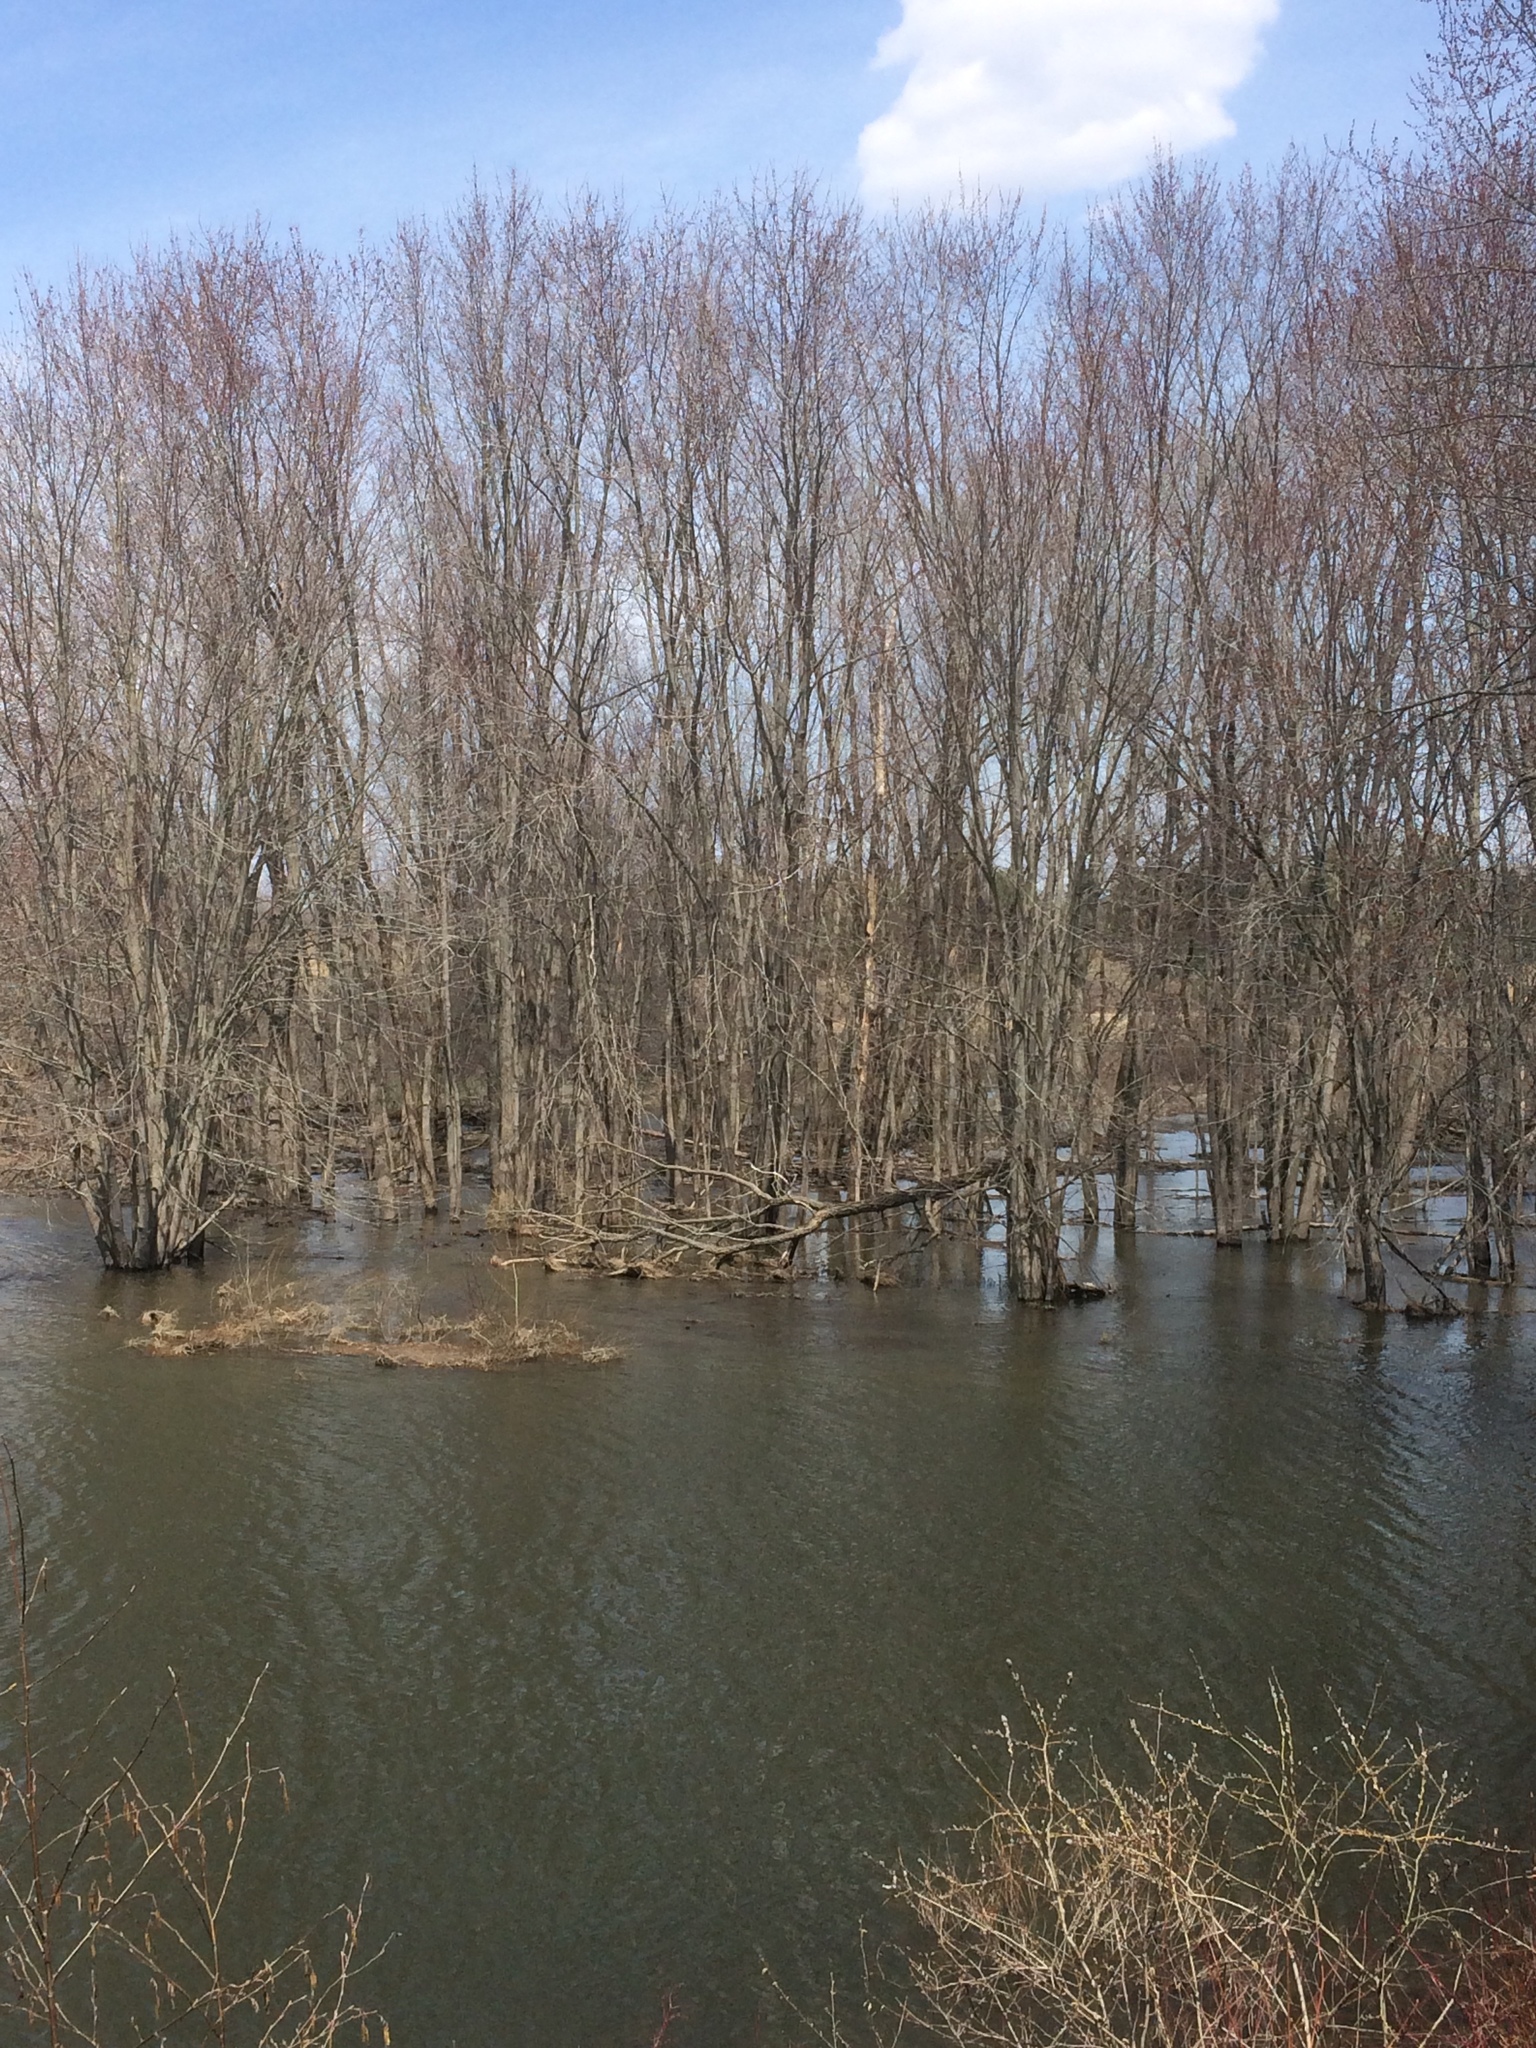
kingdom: Plantae
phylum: Tracheophyta
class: Magnoliopsida
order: Sapindales
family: Sapindaceae
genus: Acer
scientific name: Acer saccharinum
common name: Silver maple
